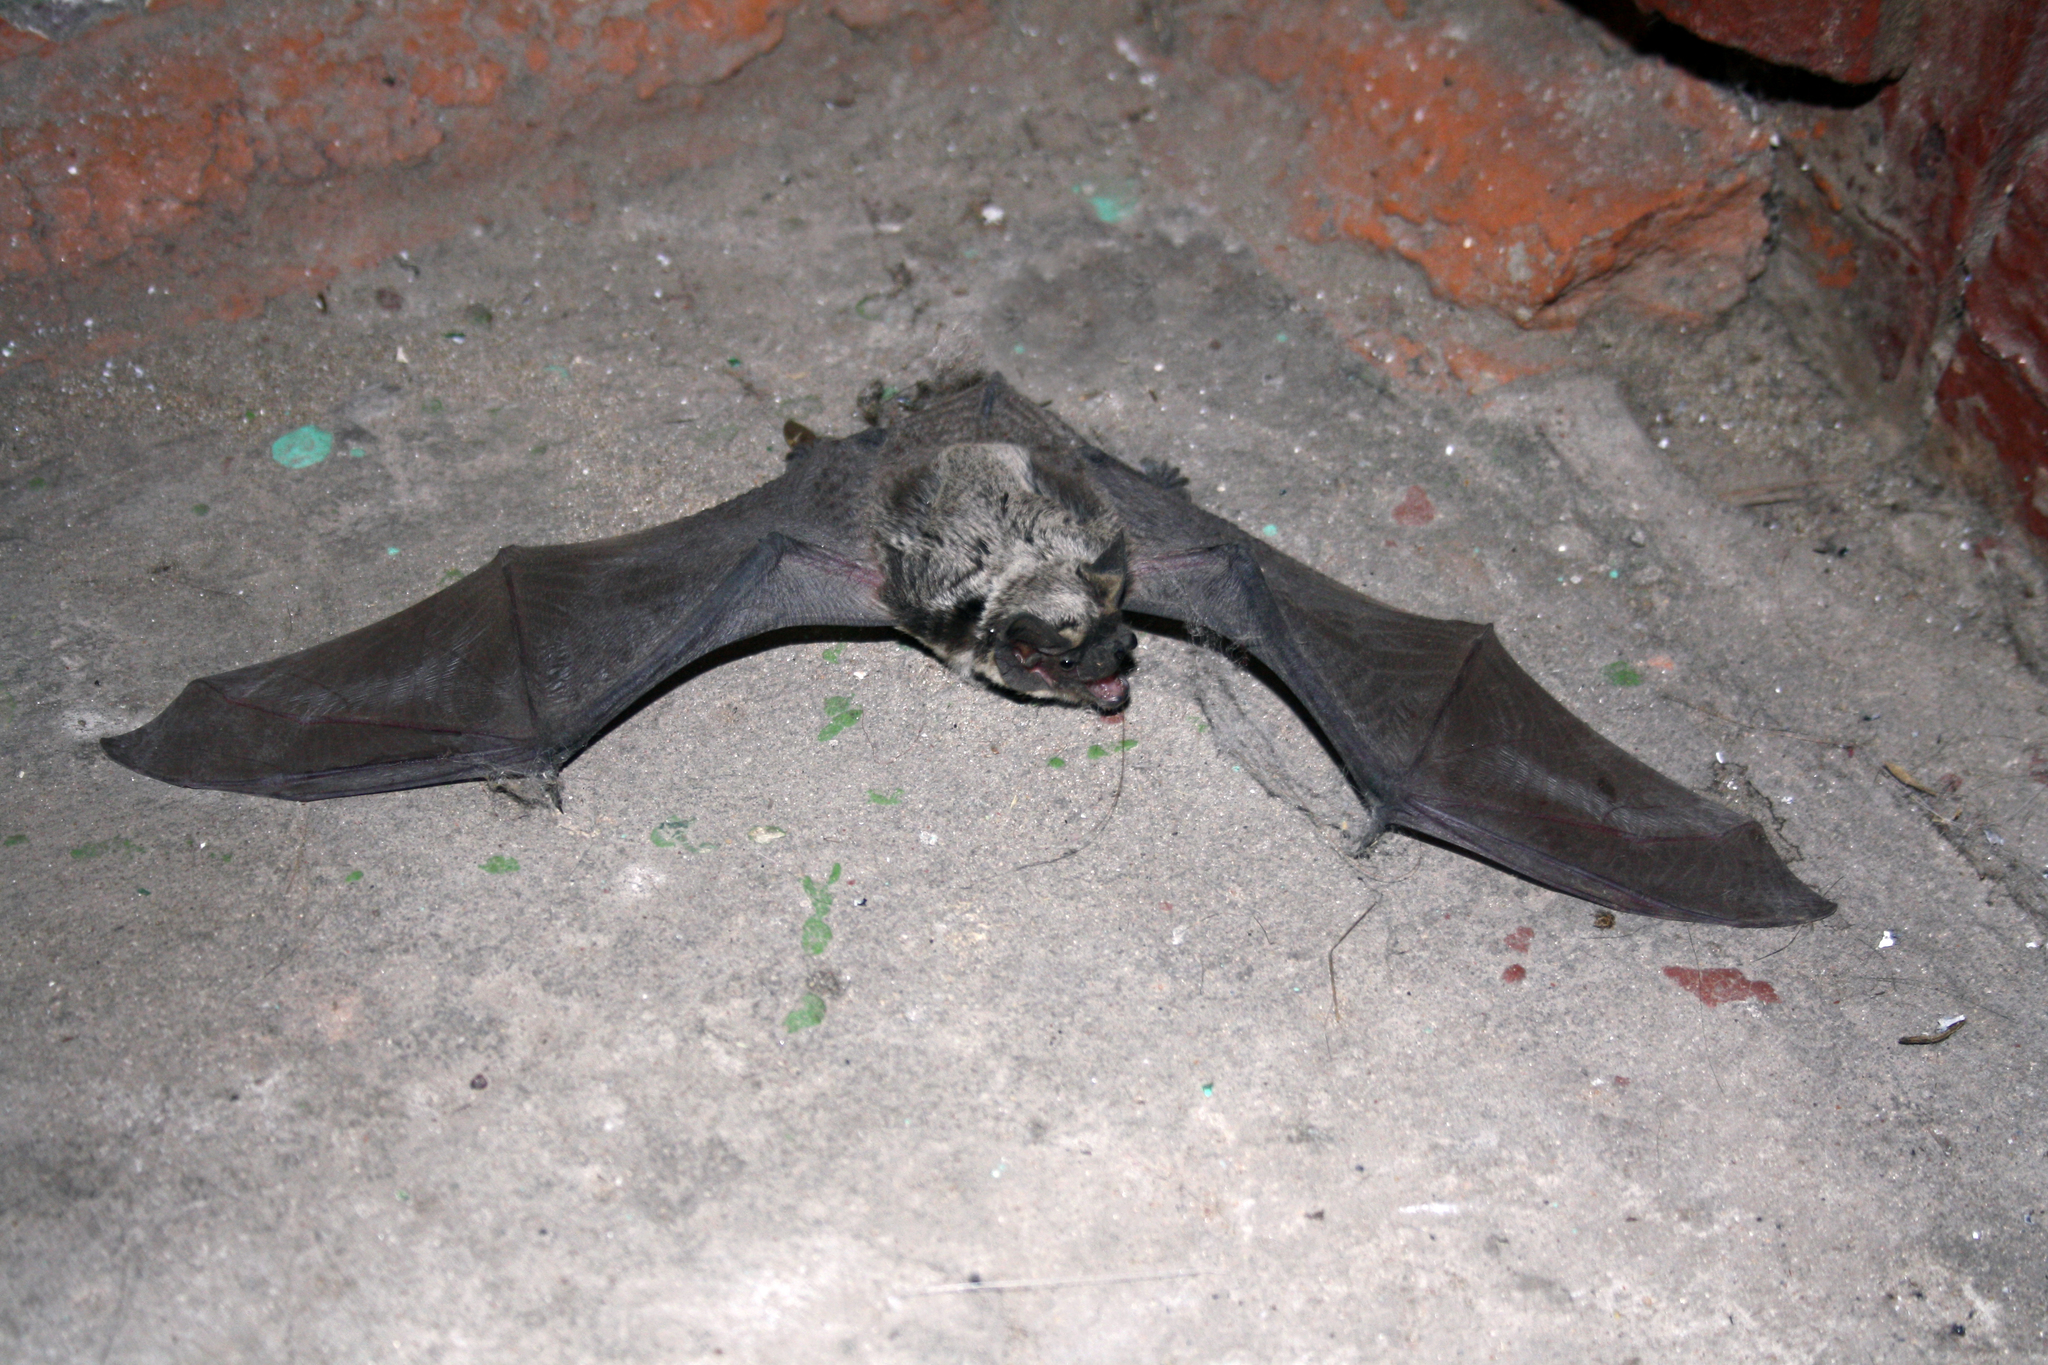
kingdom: Animalia
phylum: Chordata
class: Mammalia
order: Chiroptera
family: Vespertilionidae
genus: Vespertilio
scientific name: Vespertilio murinus
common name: Particolored bat
